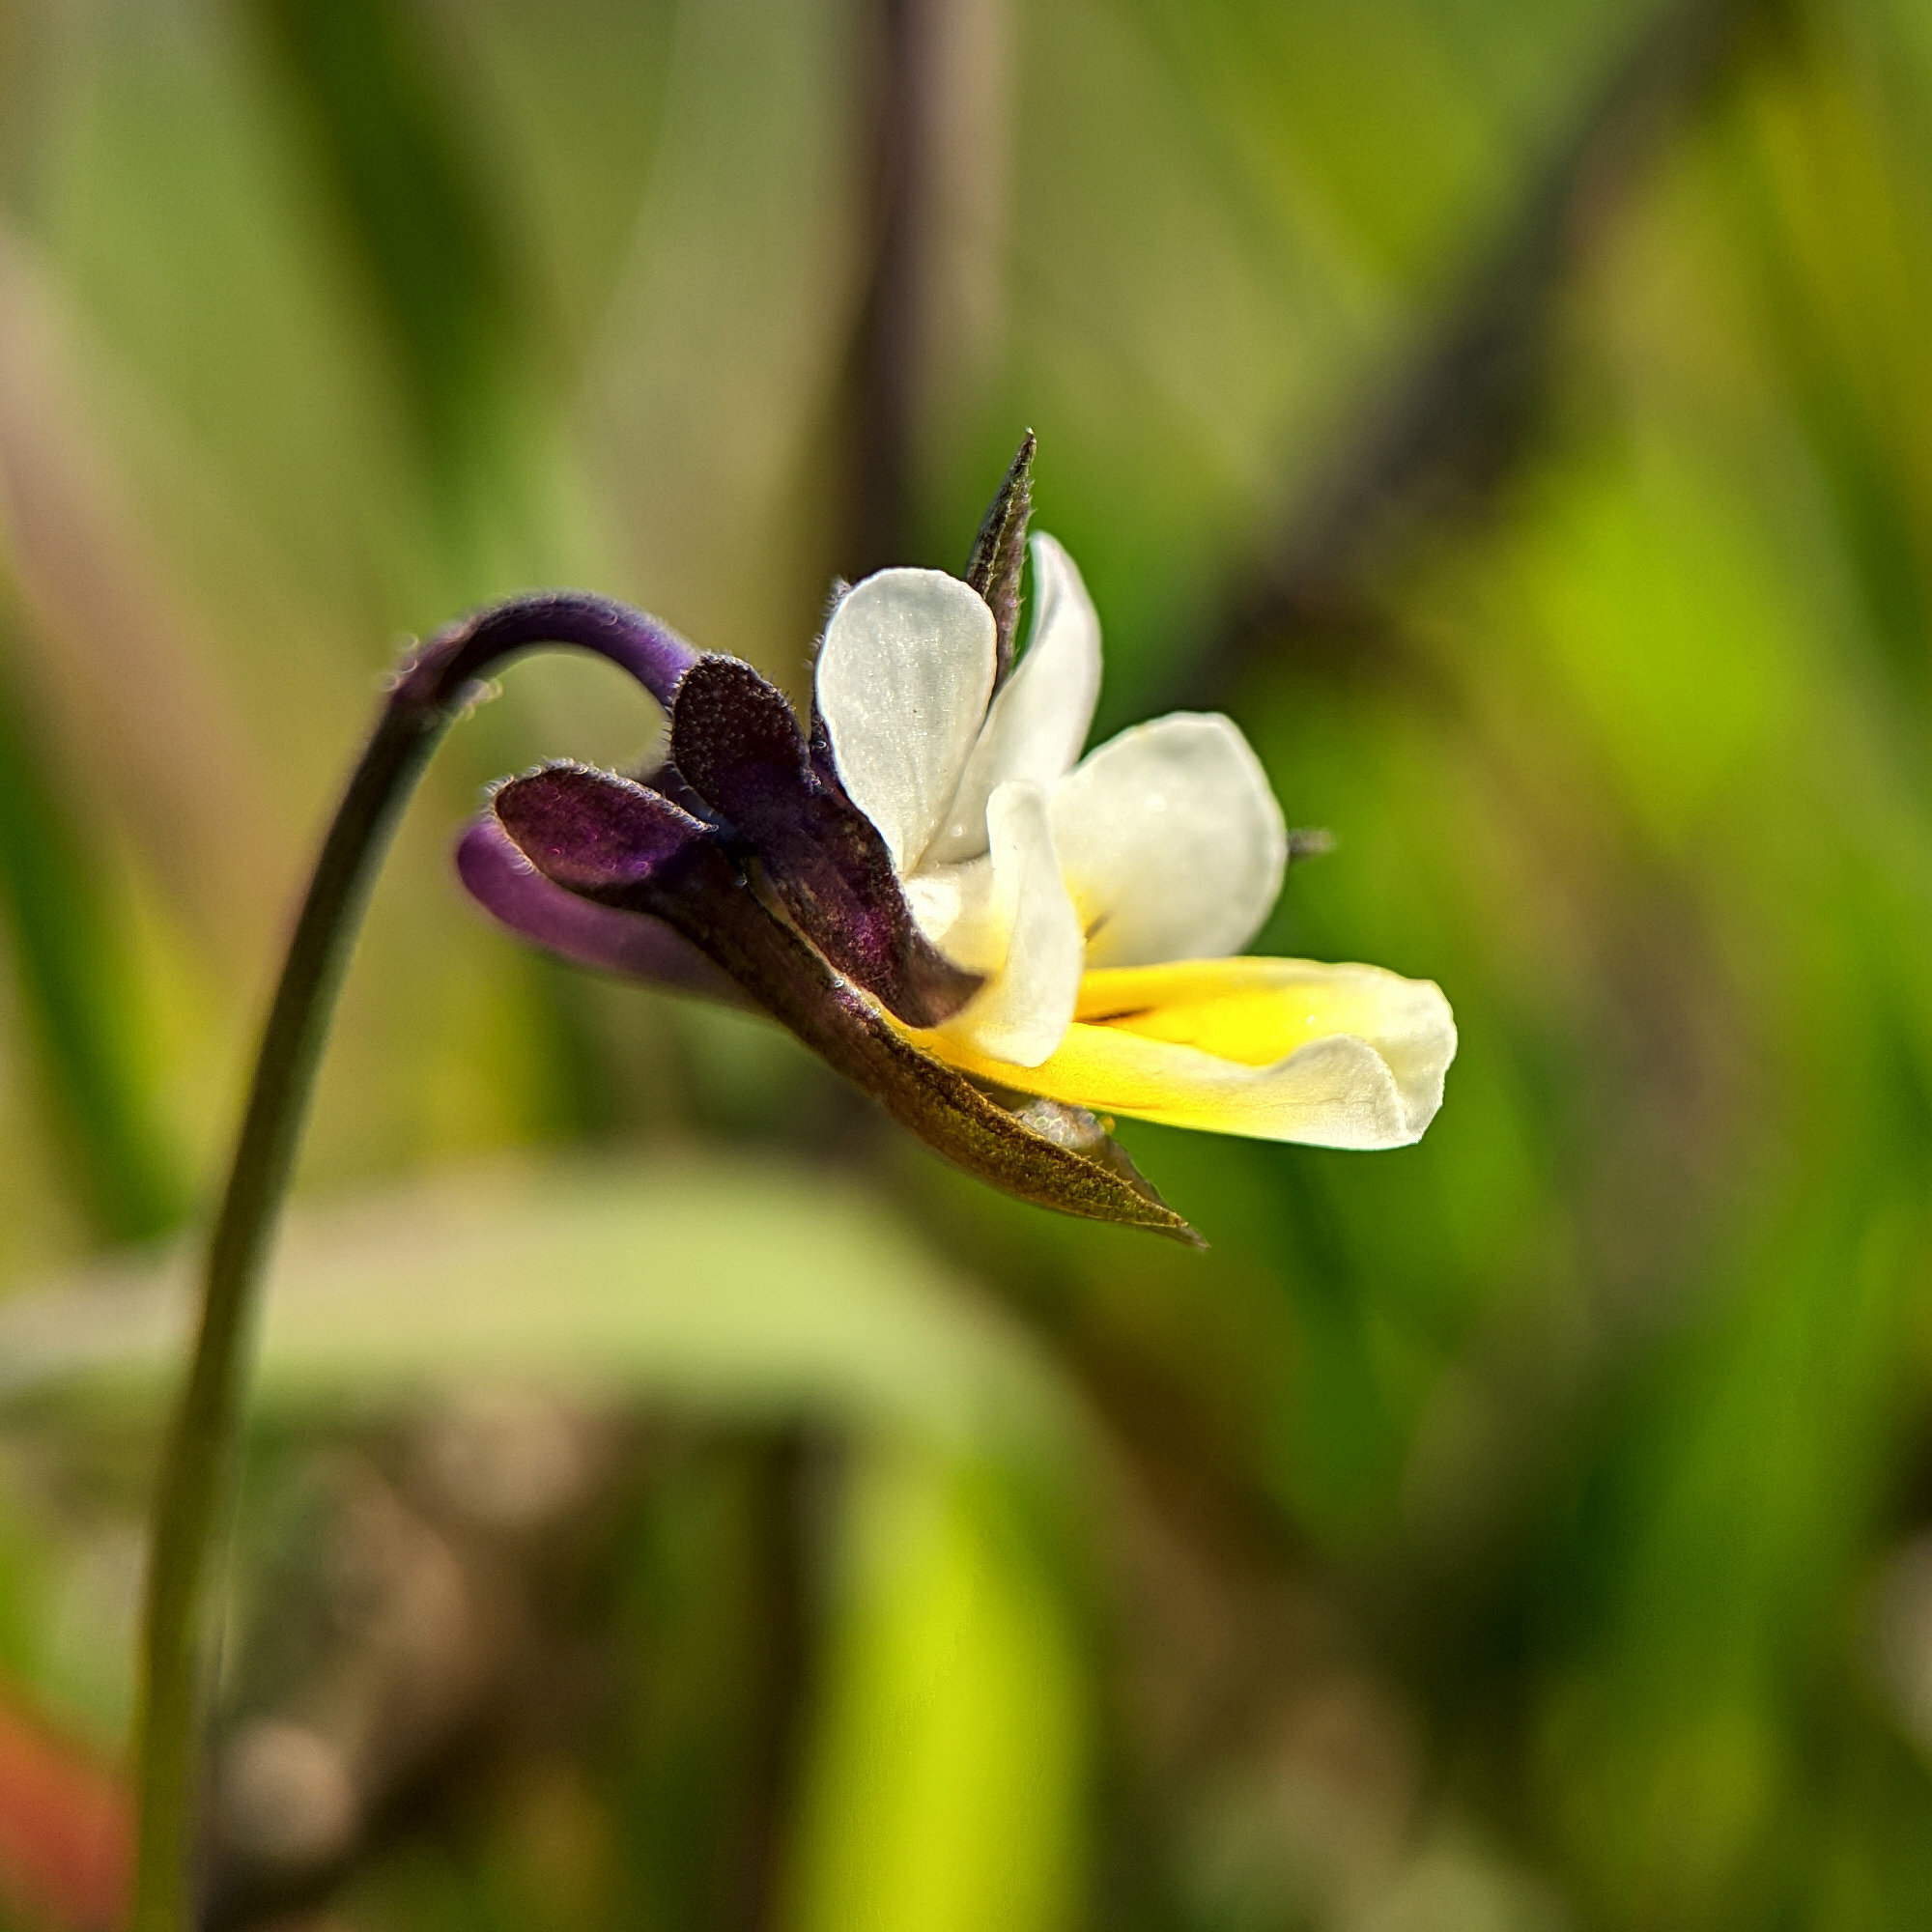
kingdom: Plantae
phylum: Tracheophyta
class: Magnoliopsida
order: Malpighiales
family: Violaceae
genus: Viola
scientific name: Viola arvensis
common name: Field pansy
